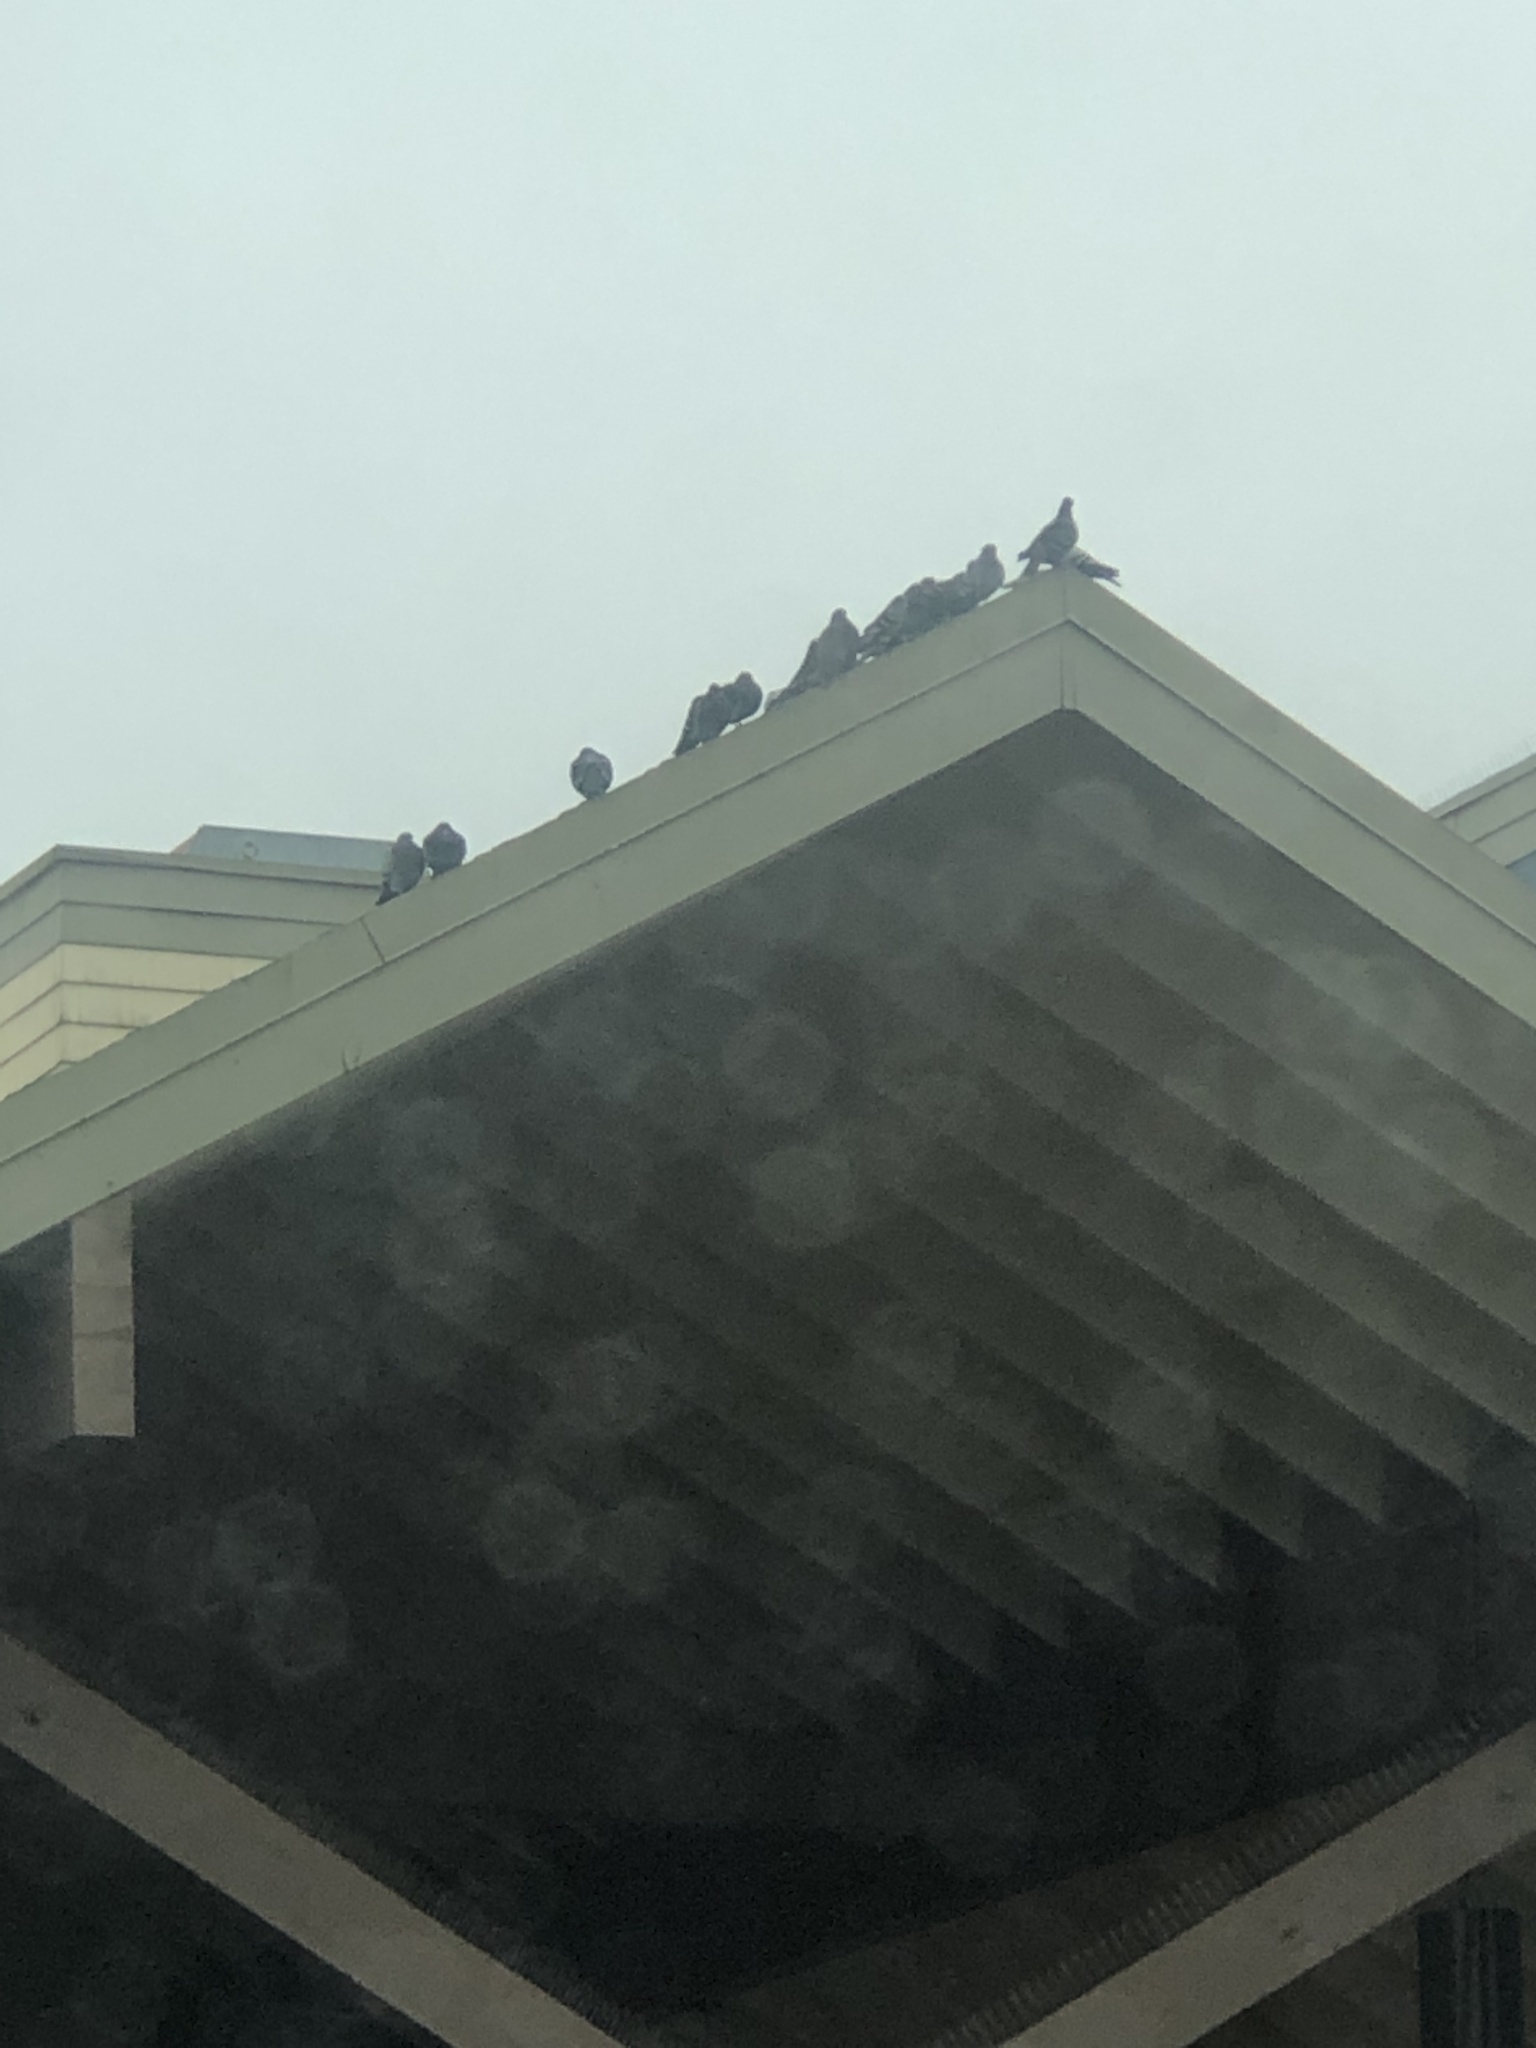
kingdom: Animalia
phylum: Chordata
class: Aves
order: Columbiformes
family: Columbidae
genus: Columba
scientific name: Columba livia
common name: Rock pigeon
